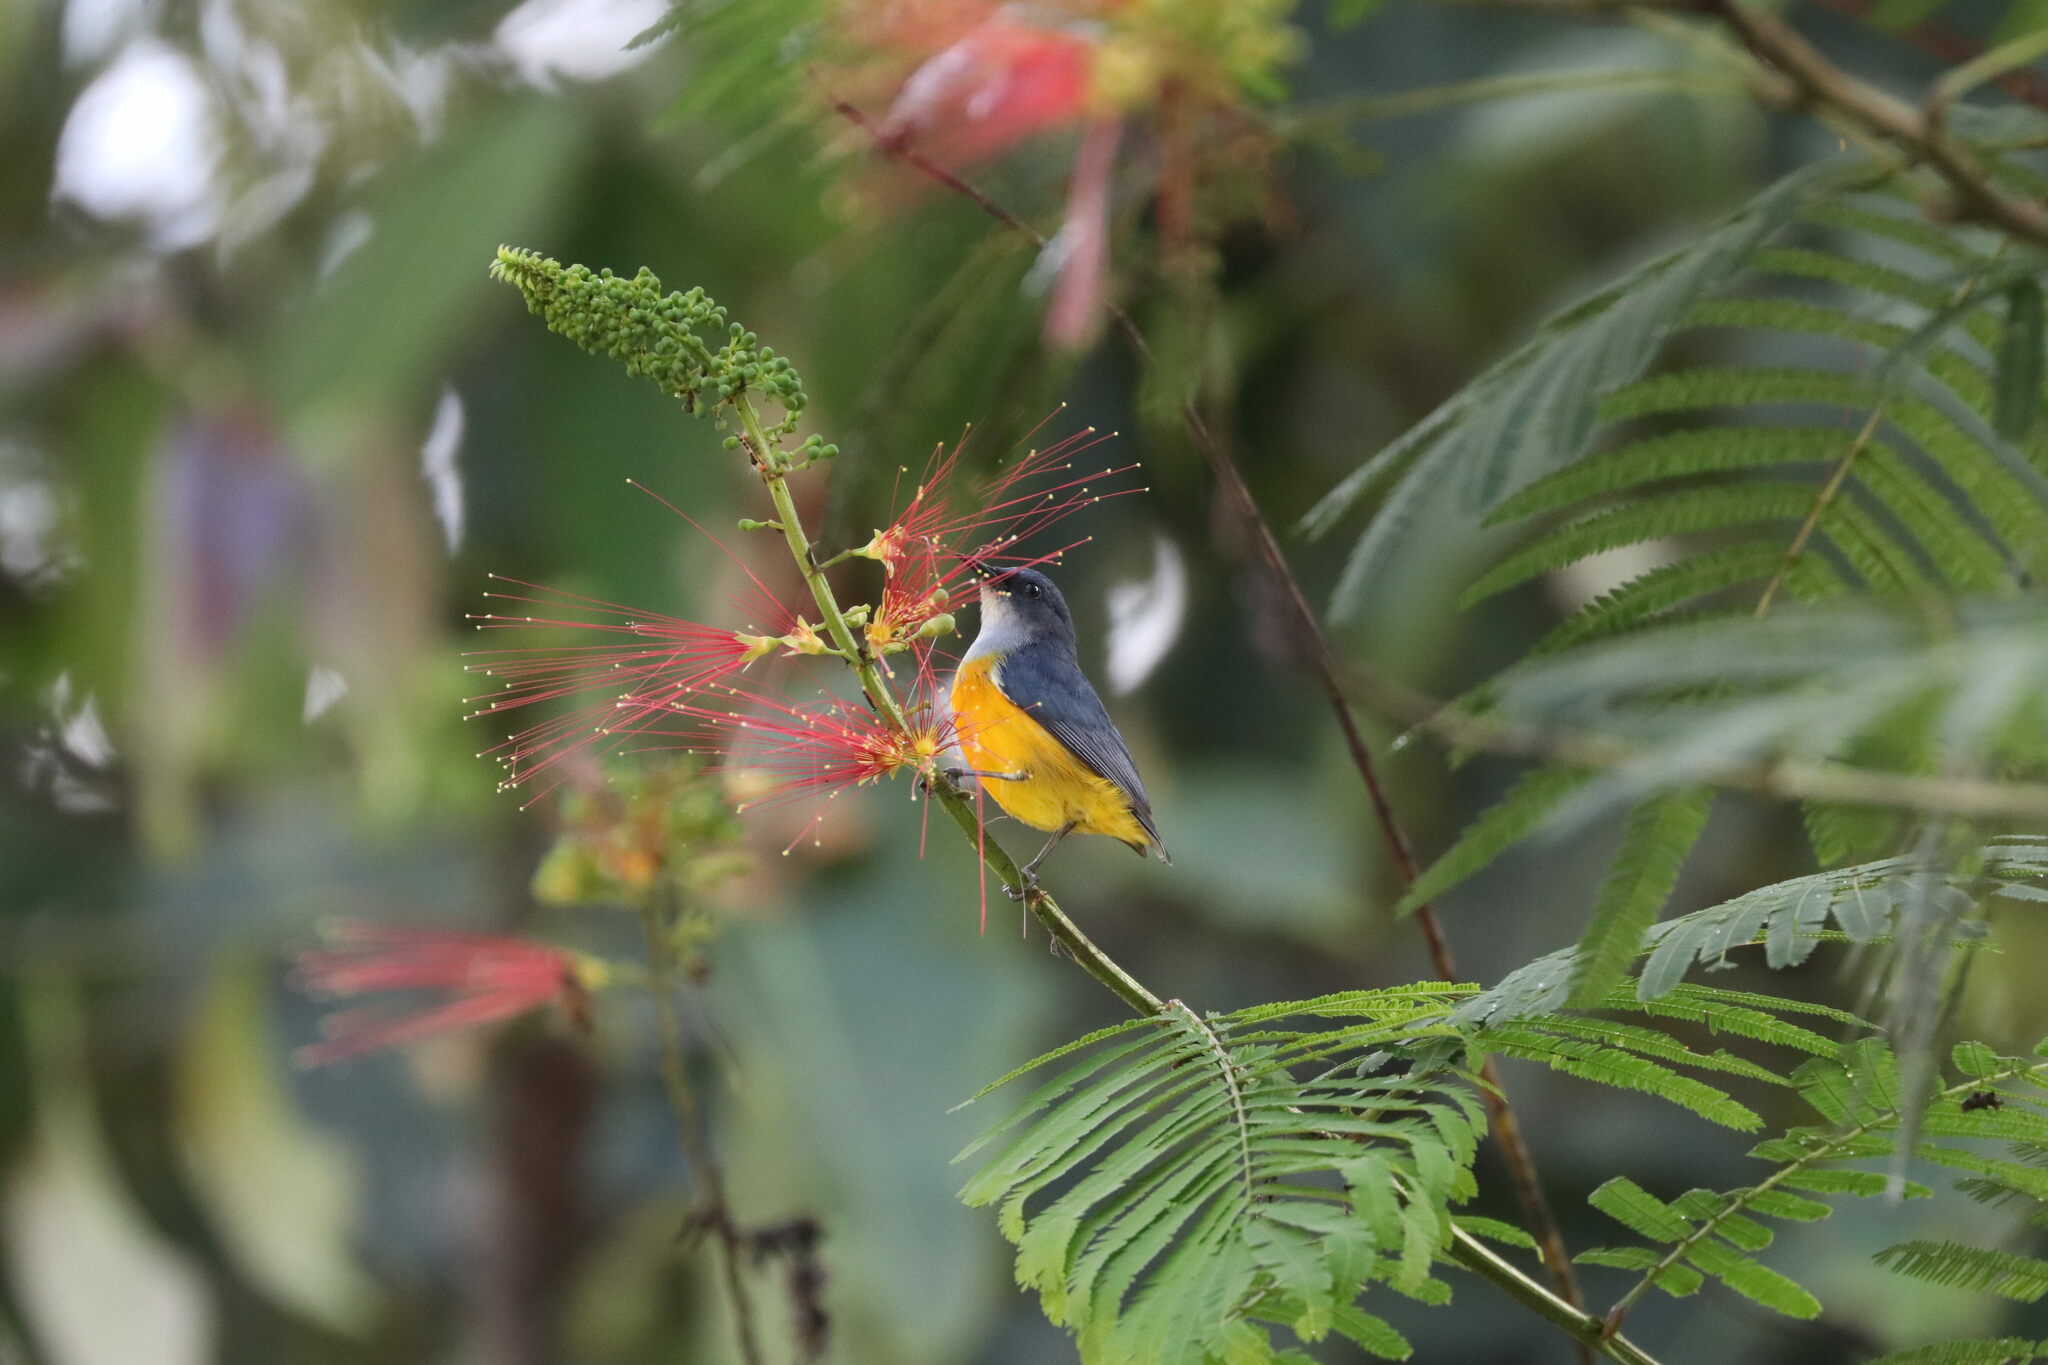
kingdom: Animalia
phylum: Chordata
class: Aves
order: Passeriformes
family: Dicaeidae
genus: Dicaeum
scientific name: Dicaeum trigonostigma
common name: Orange-bellied flowerpecker
